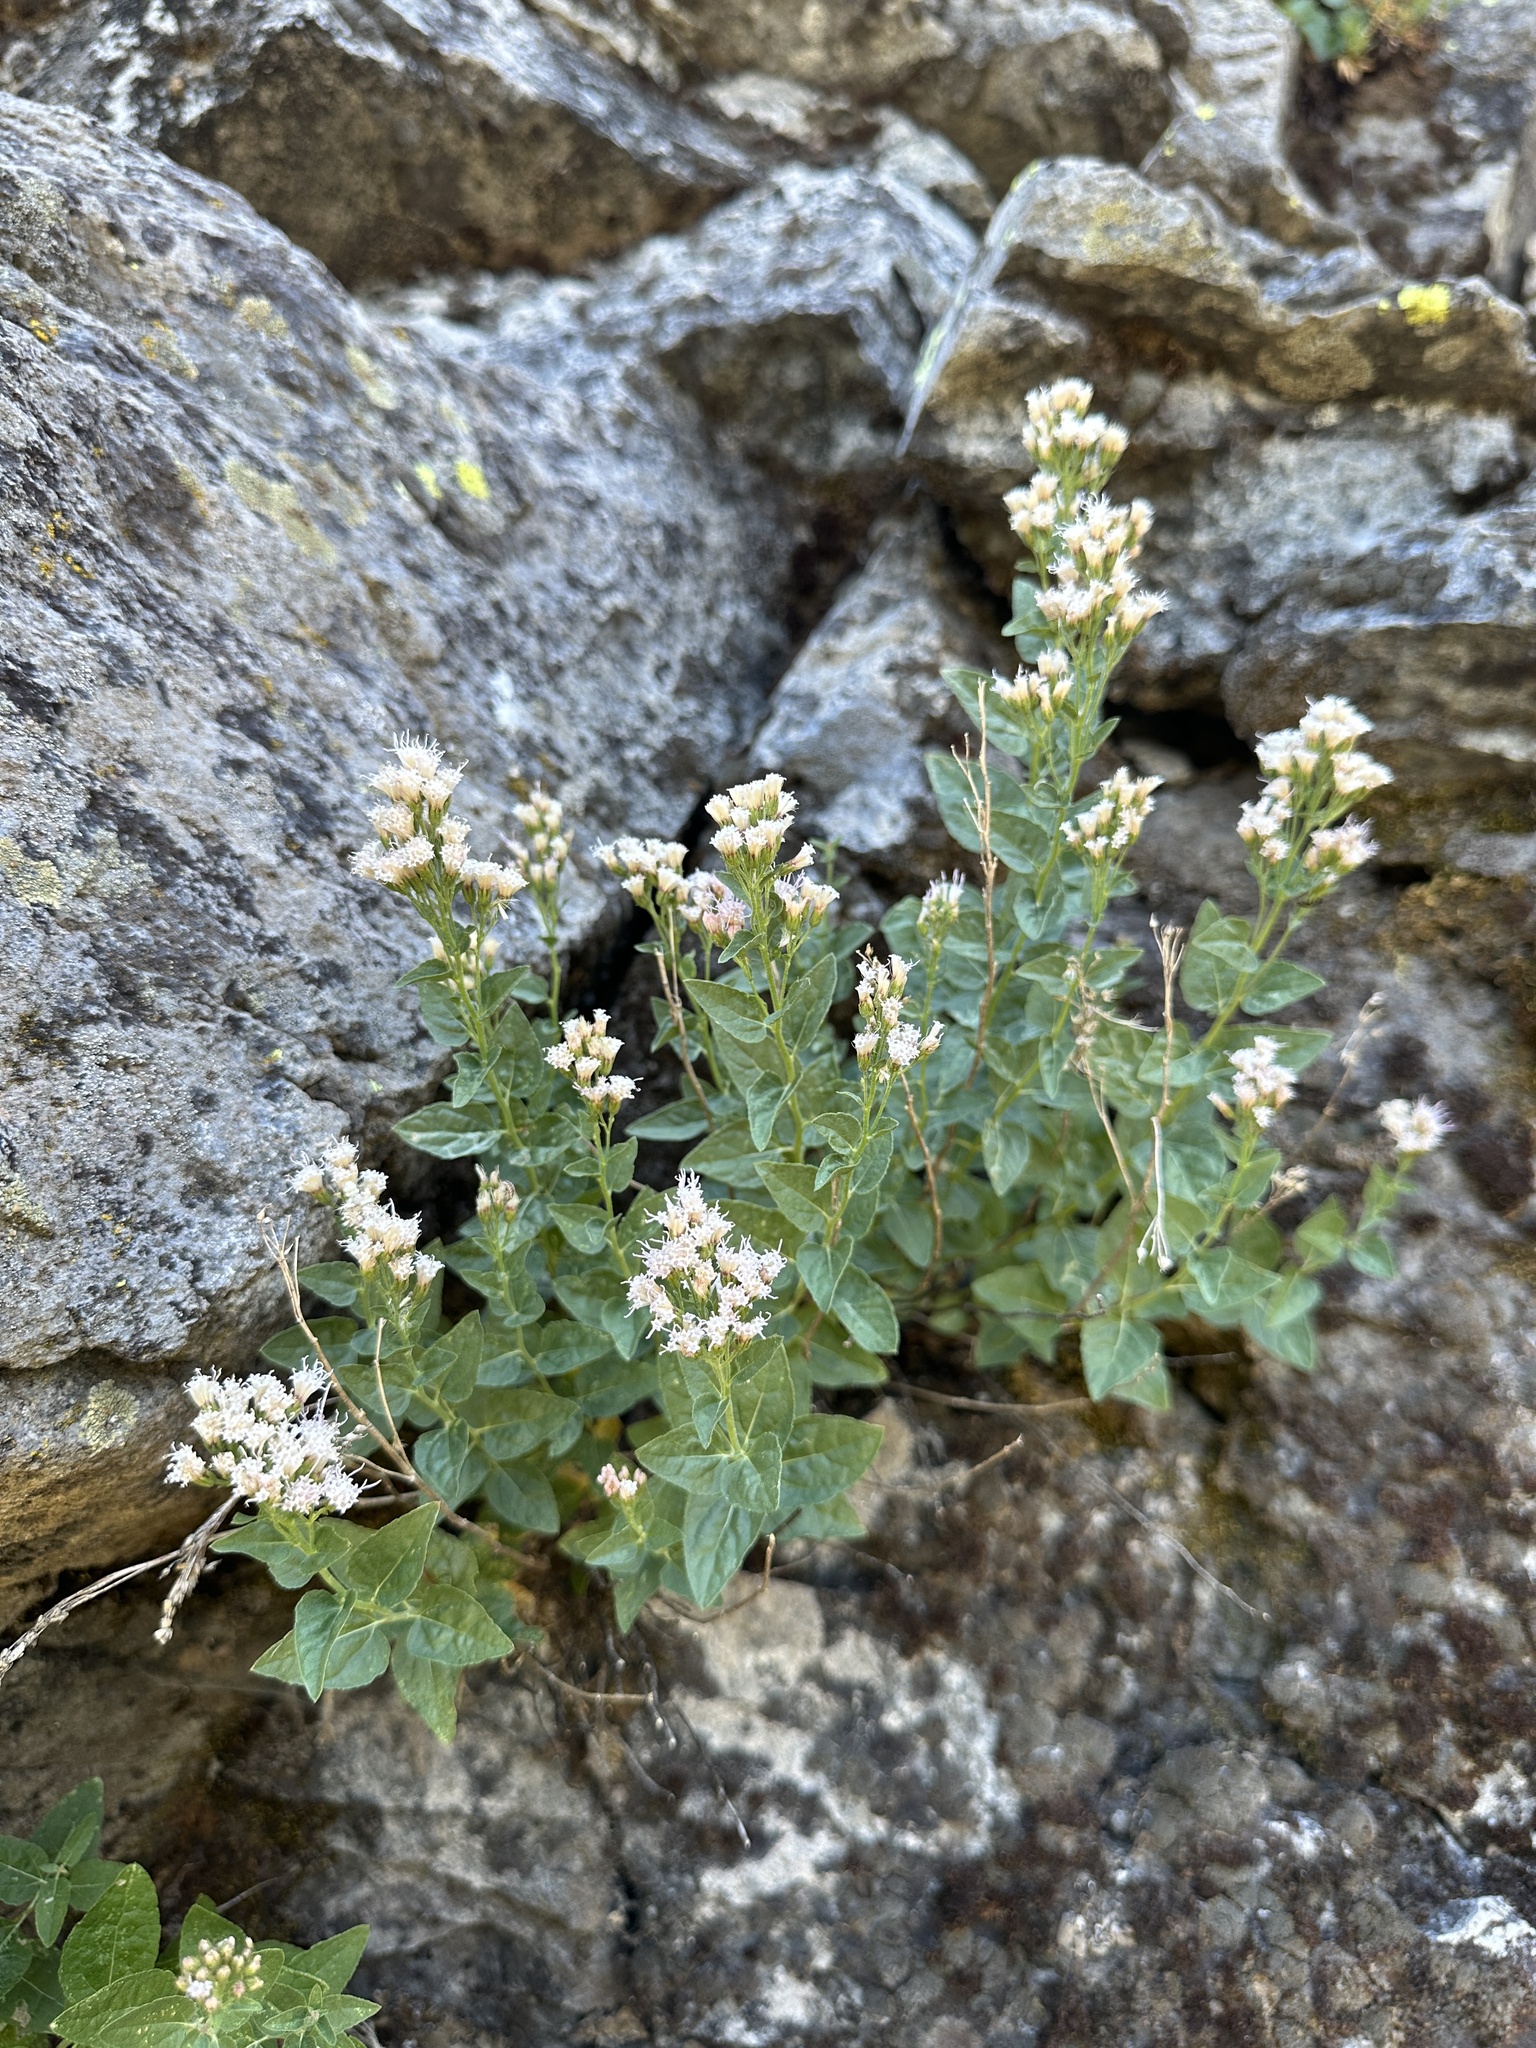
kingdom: Plantae
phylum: Tracheophyta
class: Magnoliopsida
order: Asterales
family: Asteraceae
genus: Ageratina
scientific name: Ageratina occidentalis
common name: Western snakeroot
